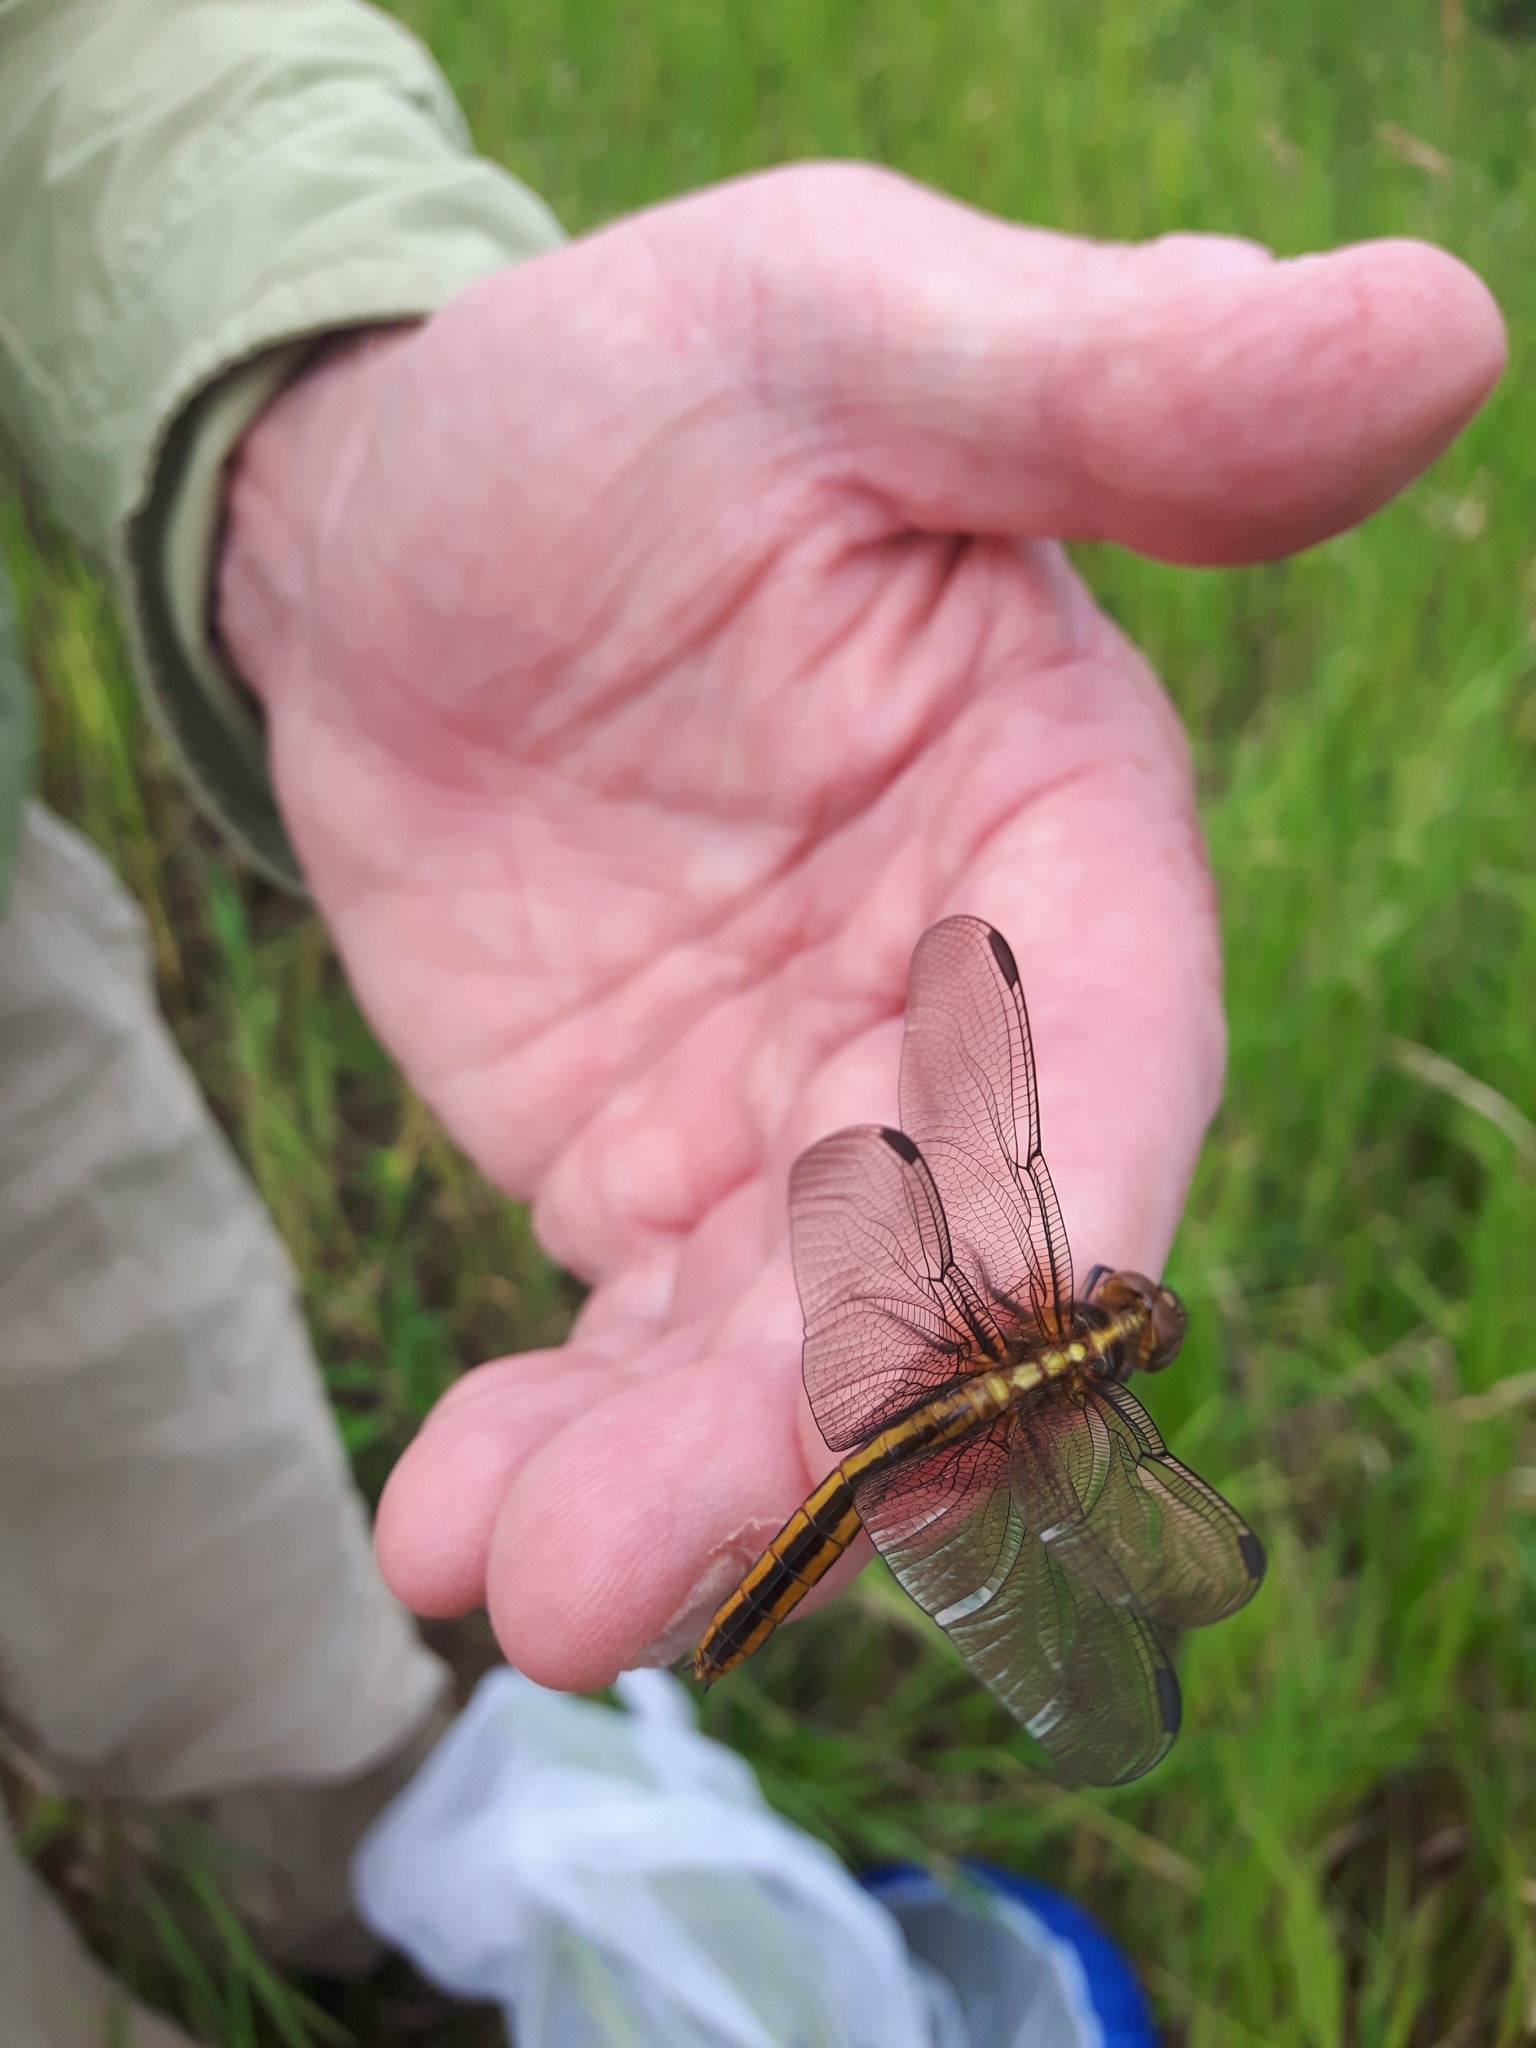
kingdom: Animalia
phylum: Arthropoda
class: Insecta
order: Odonata
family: Libellulidae
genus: Libellula
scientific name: Libellula luctuosa
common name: Widow skimmer
